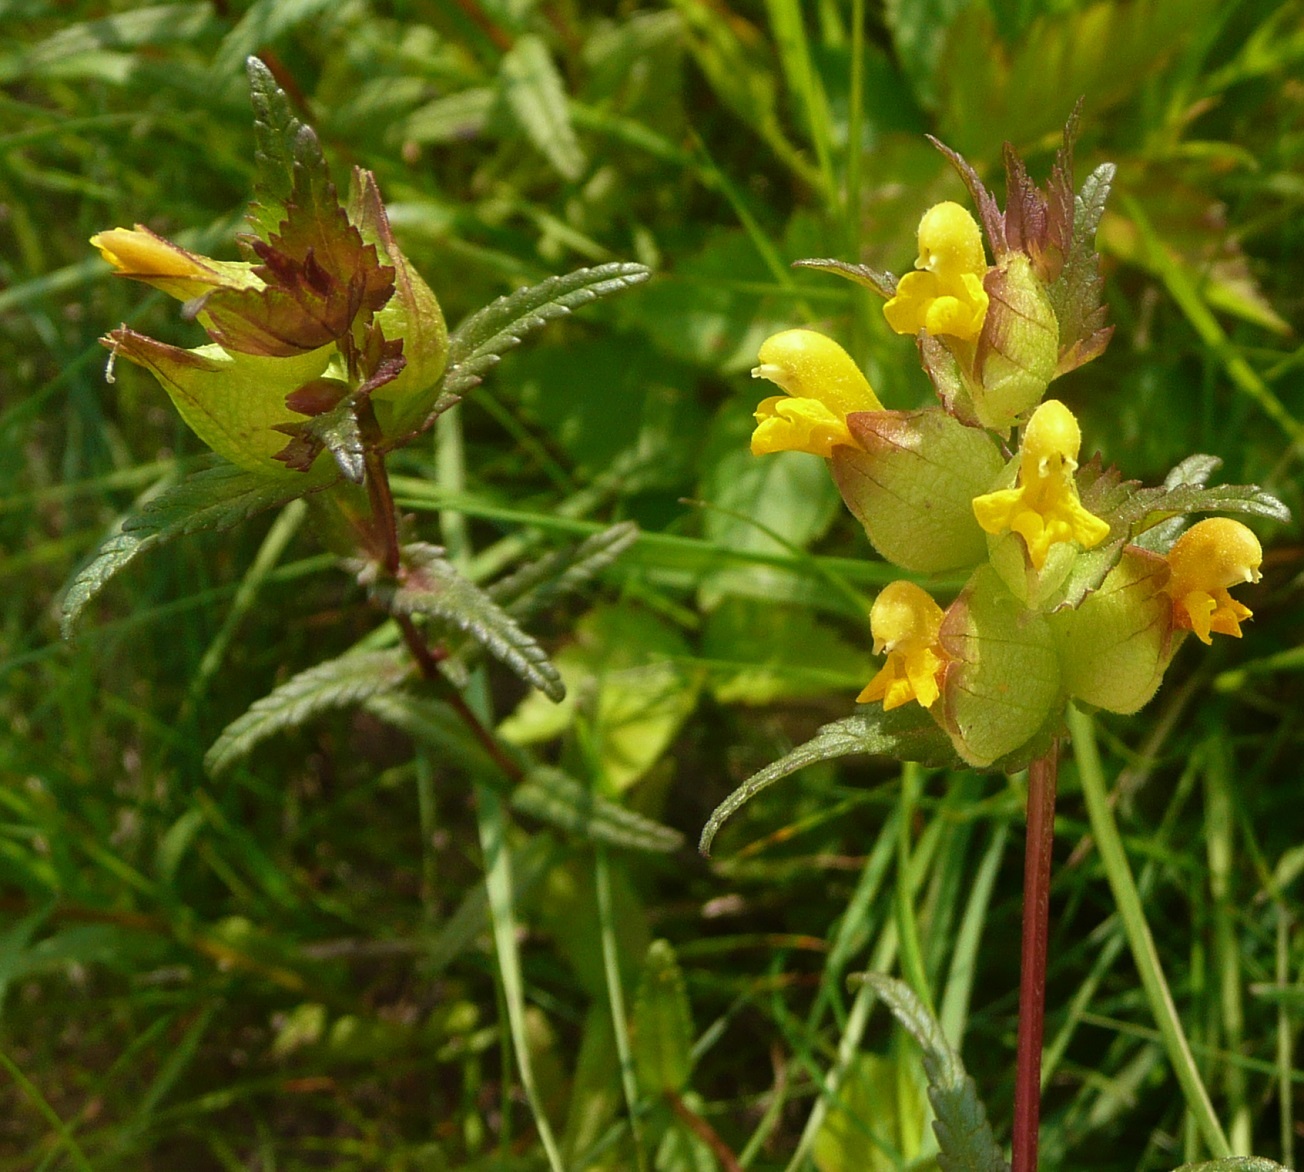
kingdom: Plantae
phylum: Tracheophyta
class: Magnoliopsida
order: Lamiales
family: Orobanchaceae
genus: Rhinanthus
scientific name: Rhinanthus minor
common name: Yellow-rattle
